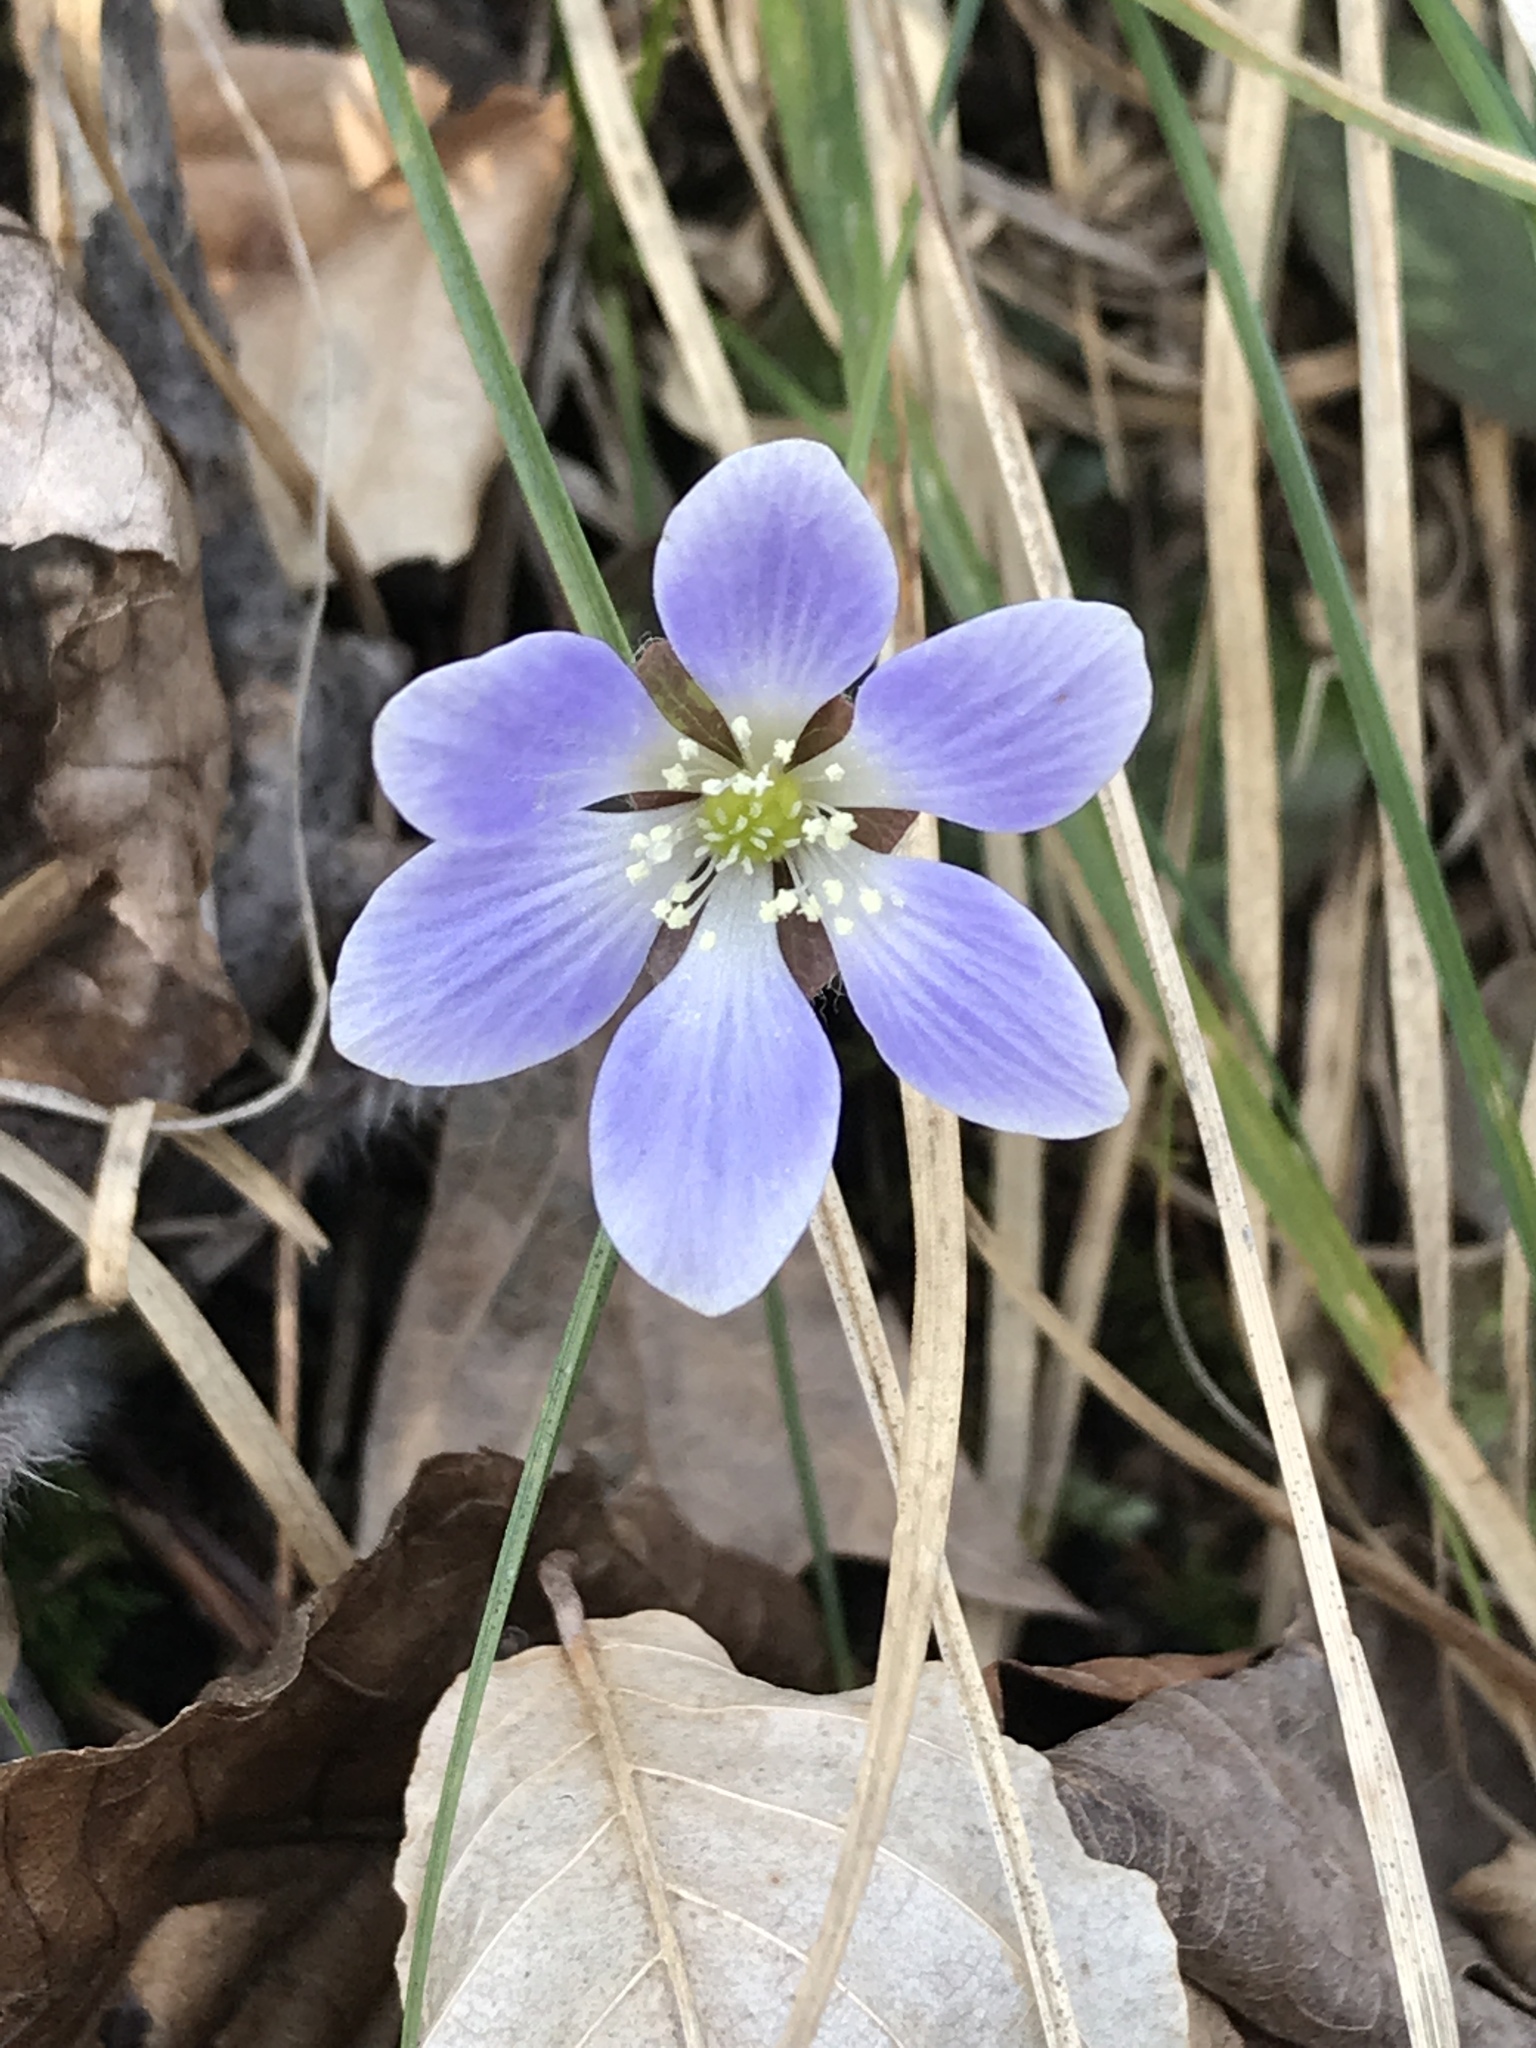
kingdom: Plantae
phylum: Tracheophyta
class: Magnoliopsida
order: Ranunculales
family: Ranunculaceae
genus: Hepatica
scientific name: Hepatica americana
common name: American hepatica
